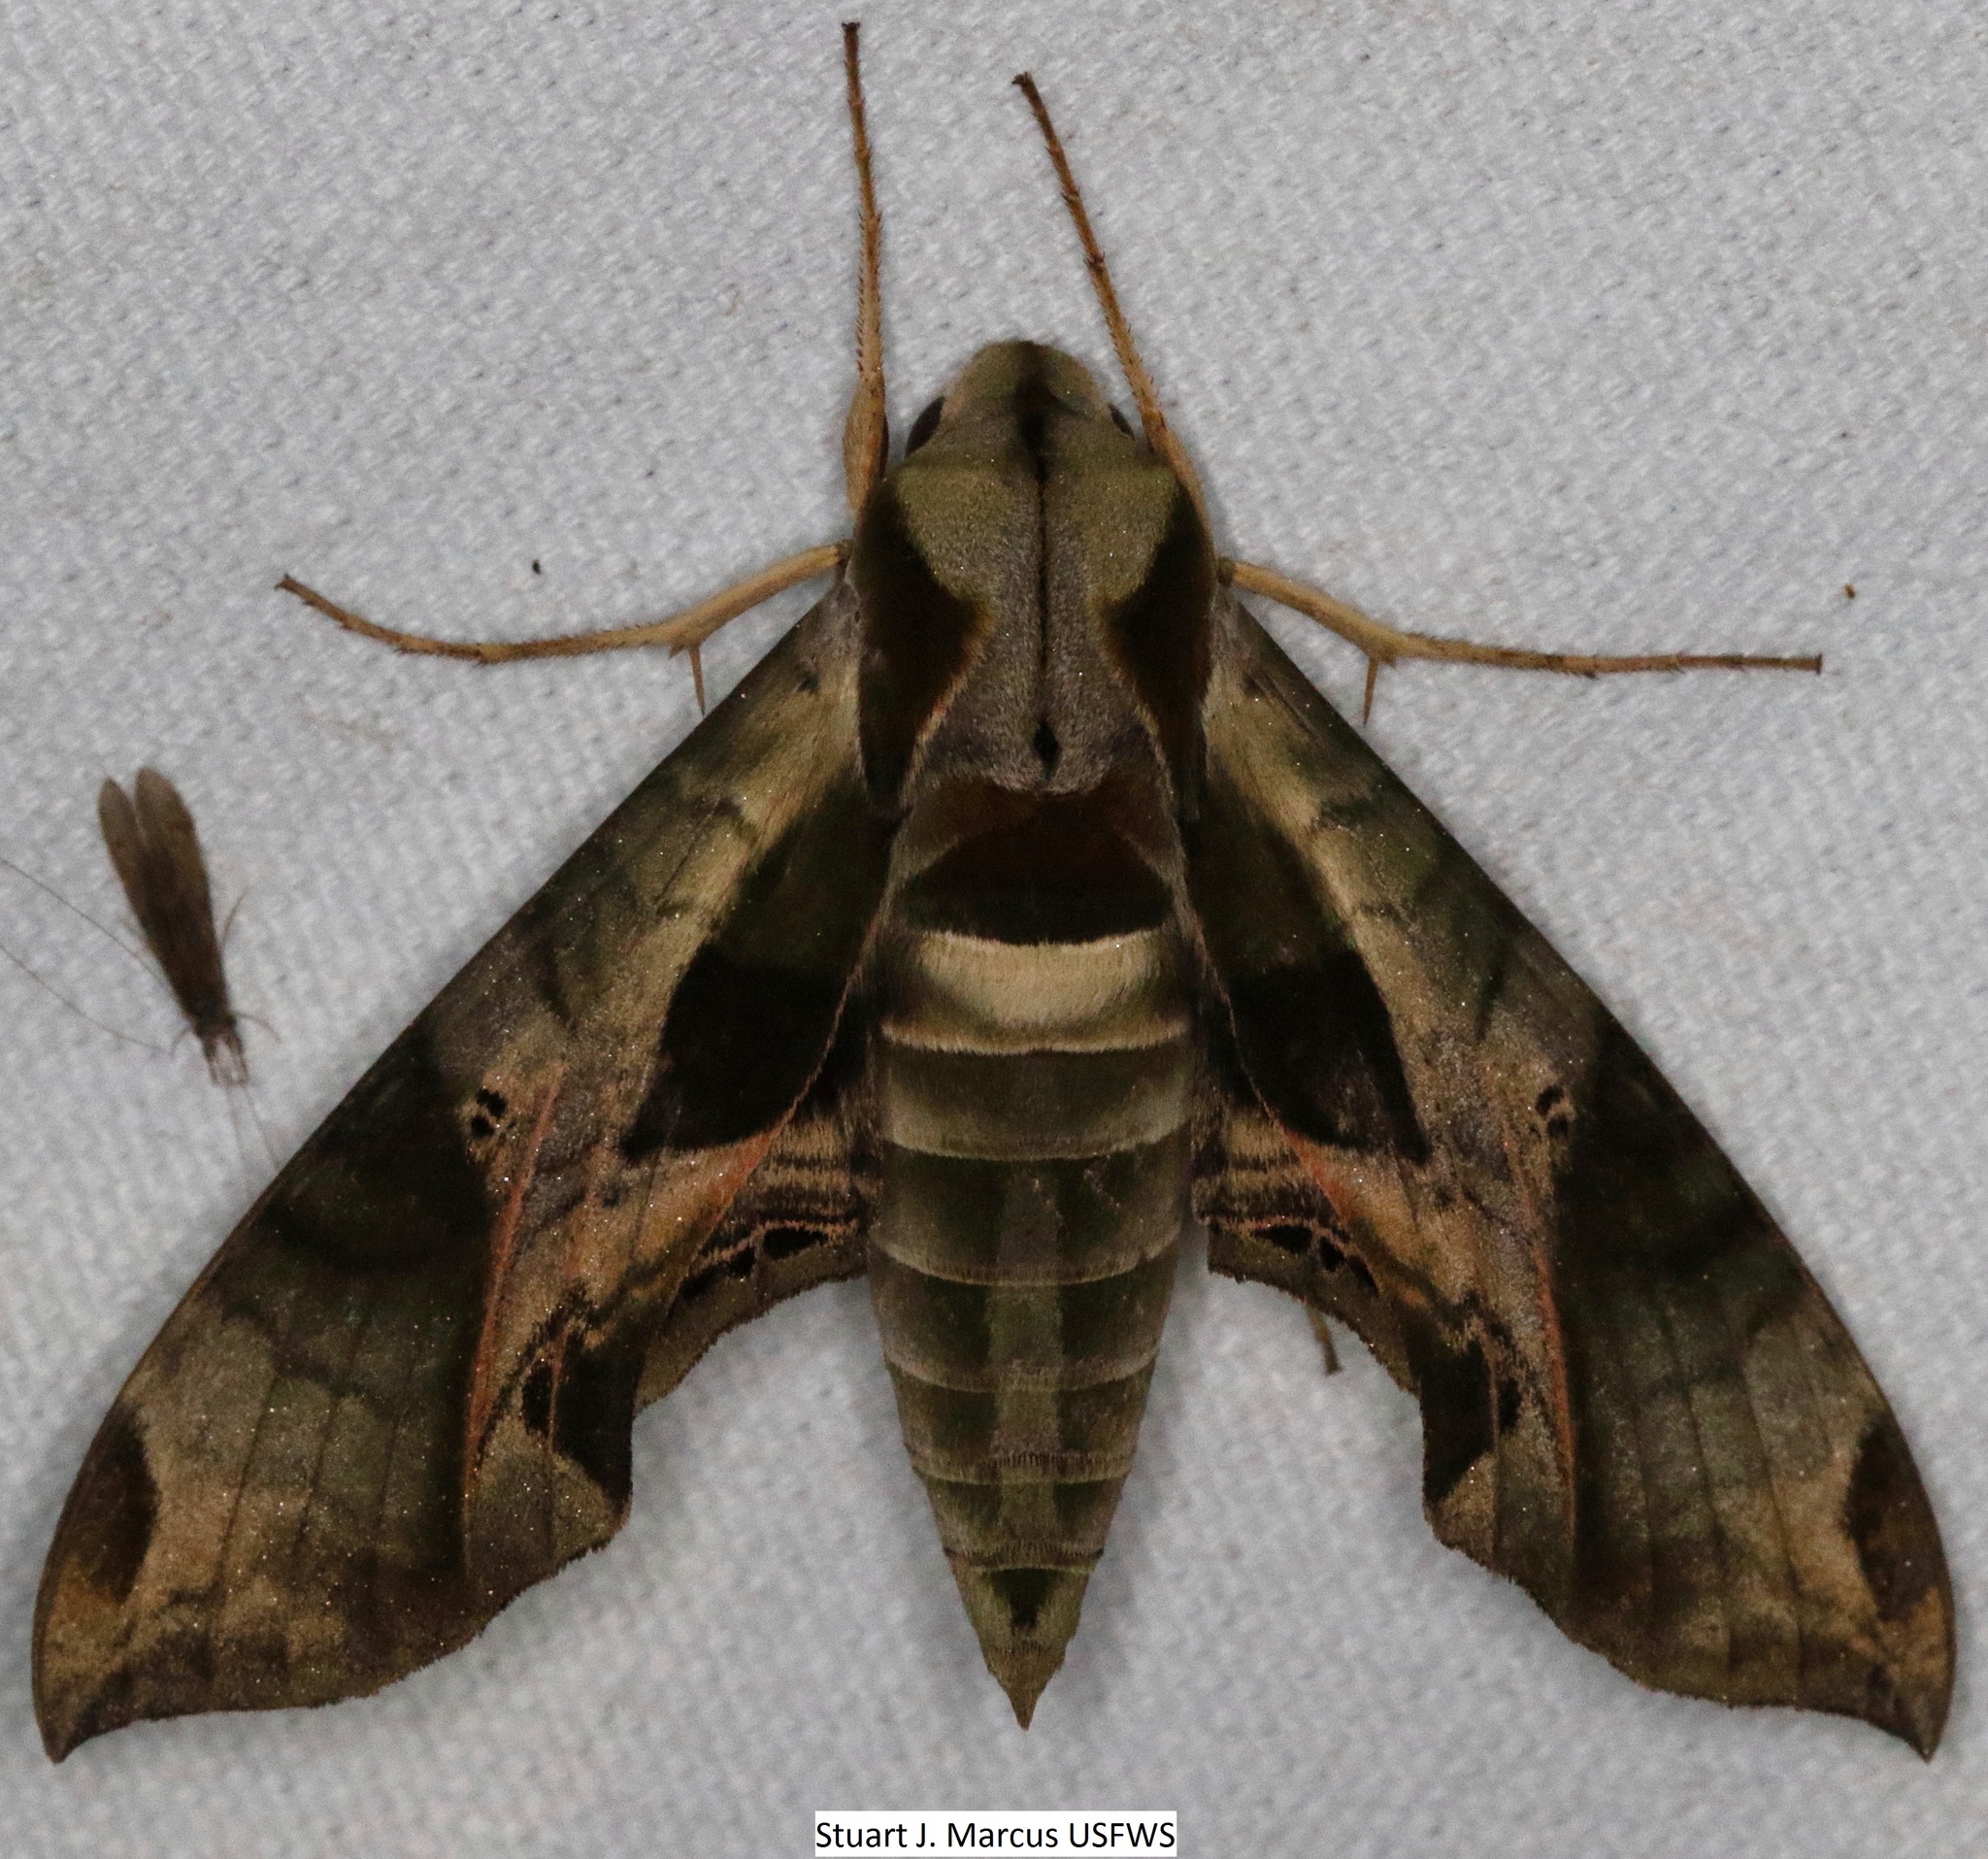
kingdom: Animalia
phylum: Arthropoda
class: Insecta
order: Lepidoptera
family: Sphingidae
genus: Eumorpha
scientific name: Eumorpha pandorus
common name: Pandora sphinx
